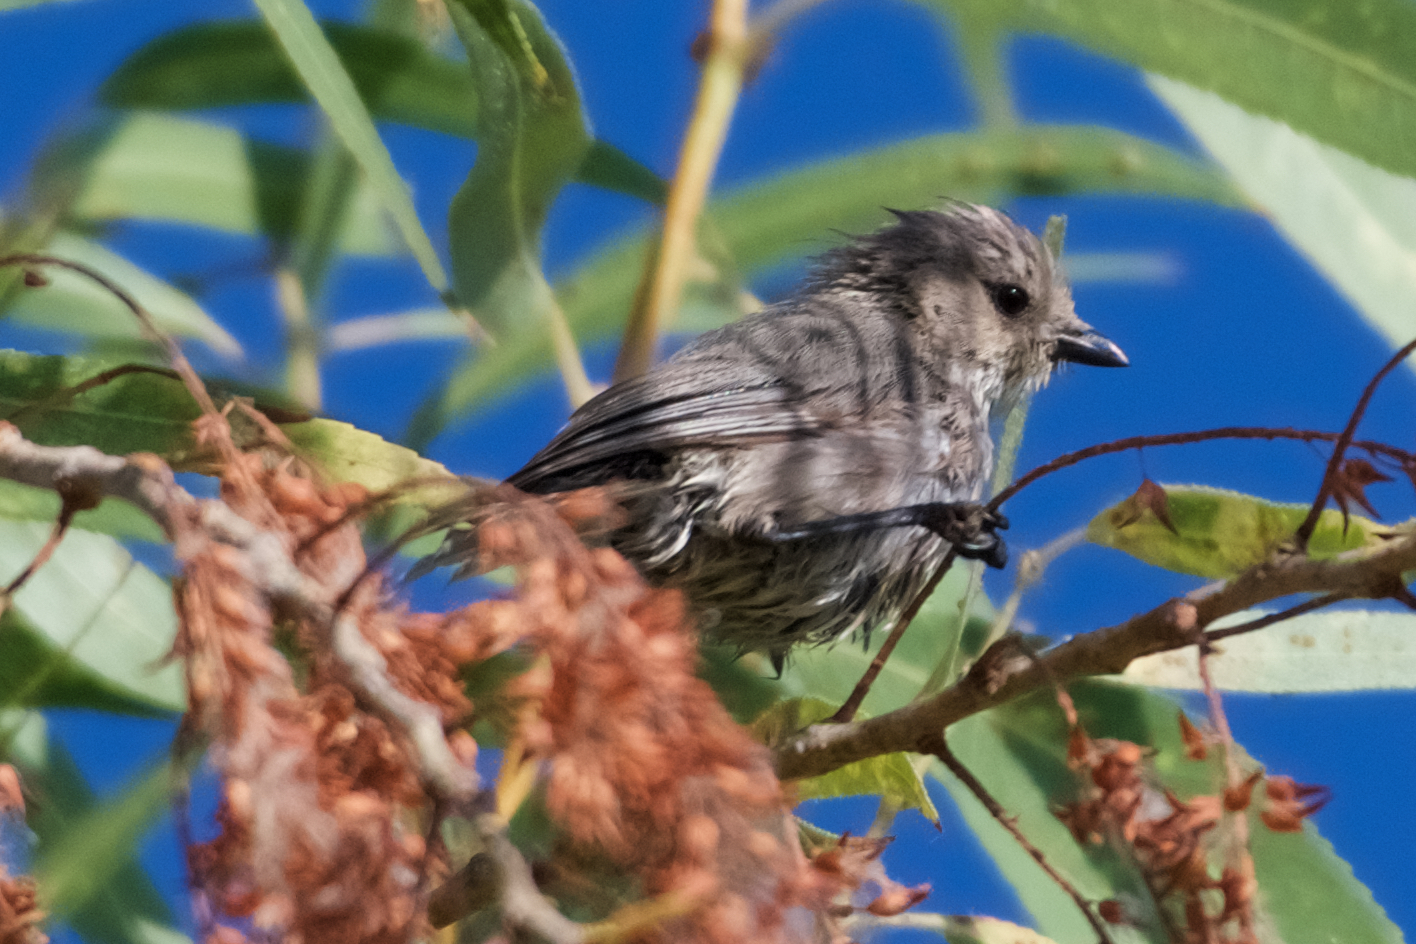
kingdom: Animalia
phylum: Chordata
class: Aves
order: Passeriformes
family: Paridae
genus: Baeolophus
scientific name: Baeolophus inornatus
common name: Oak titmouse
